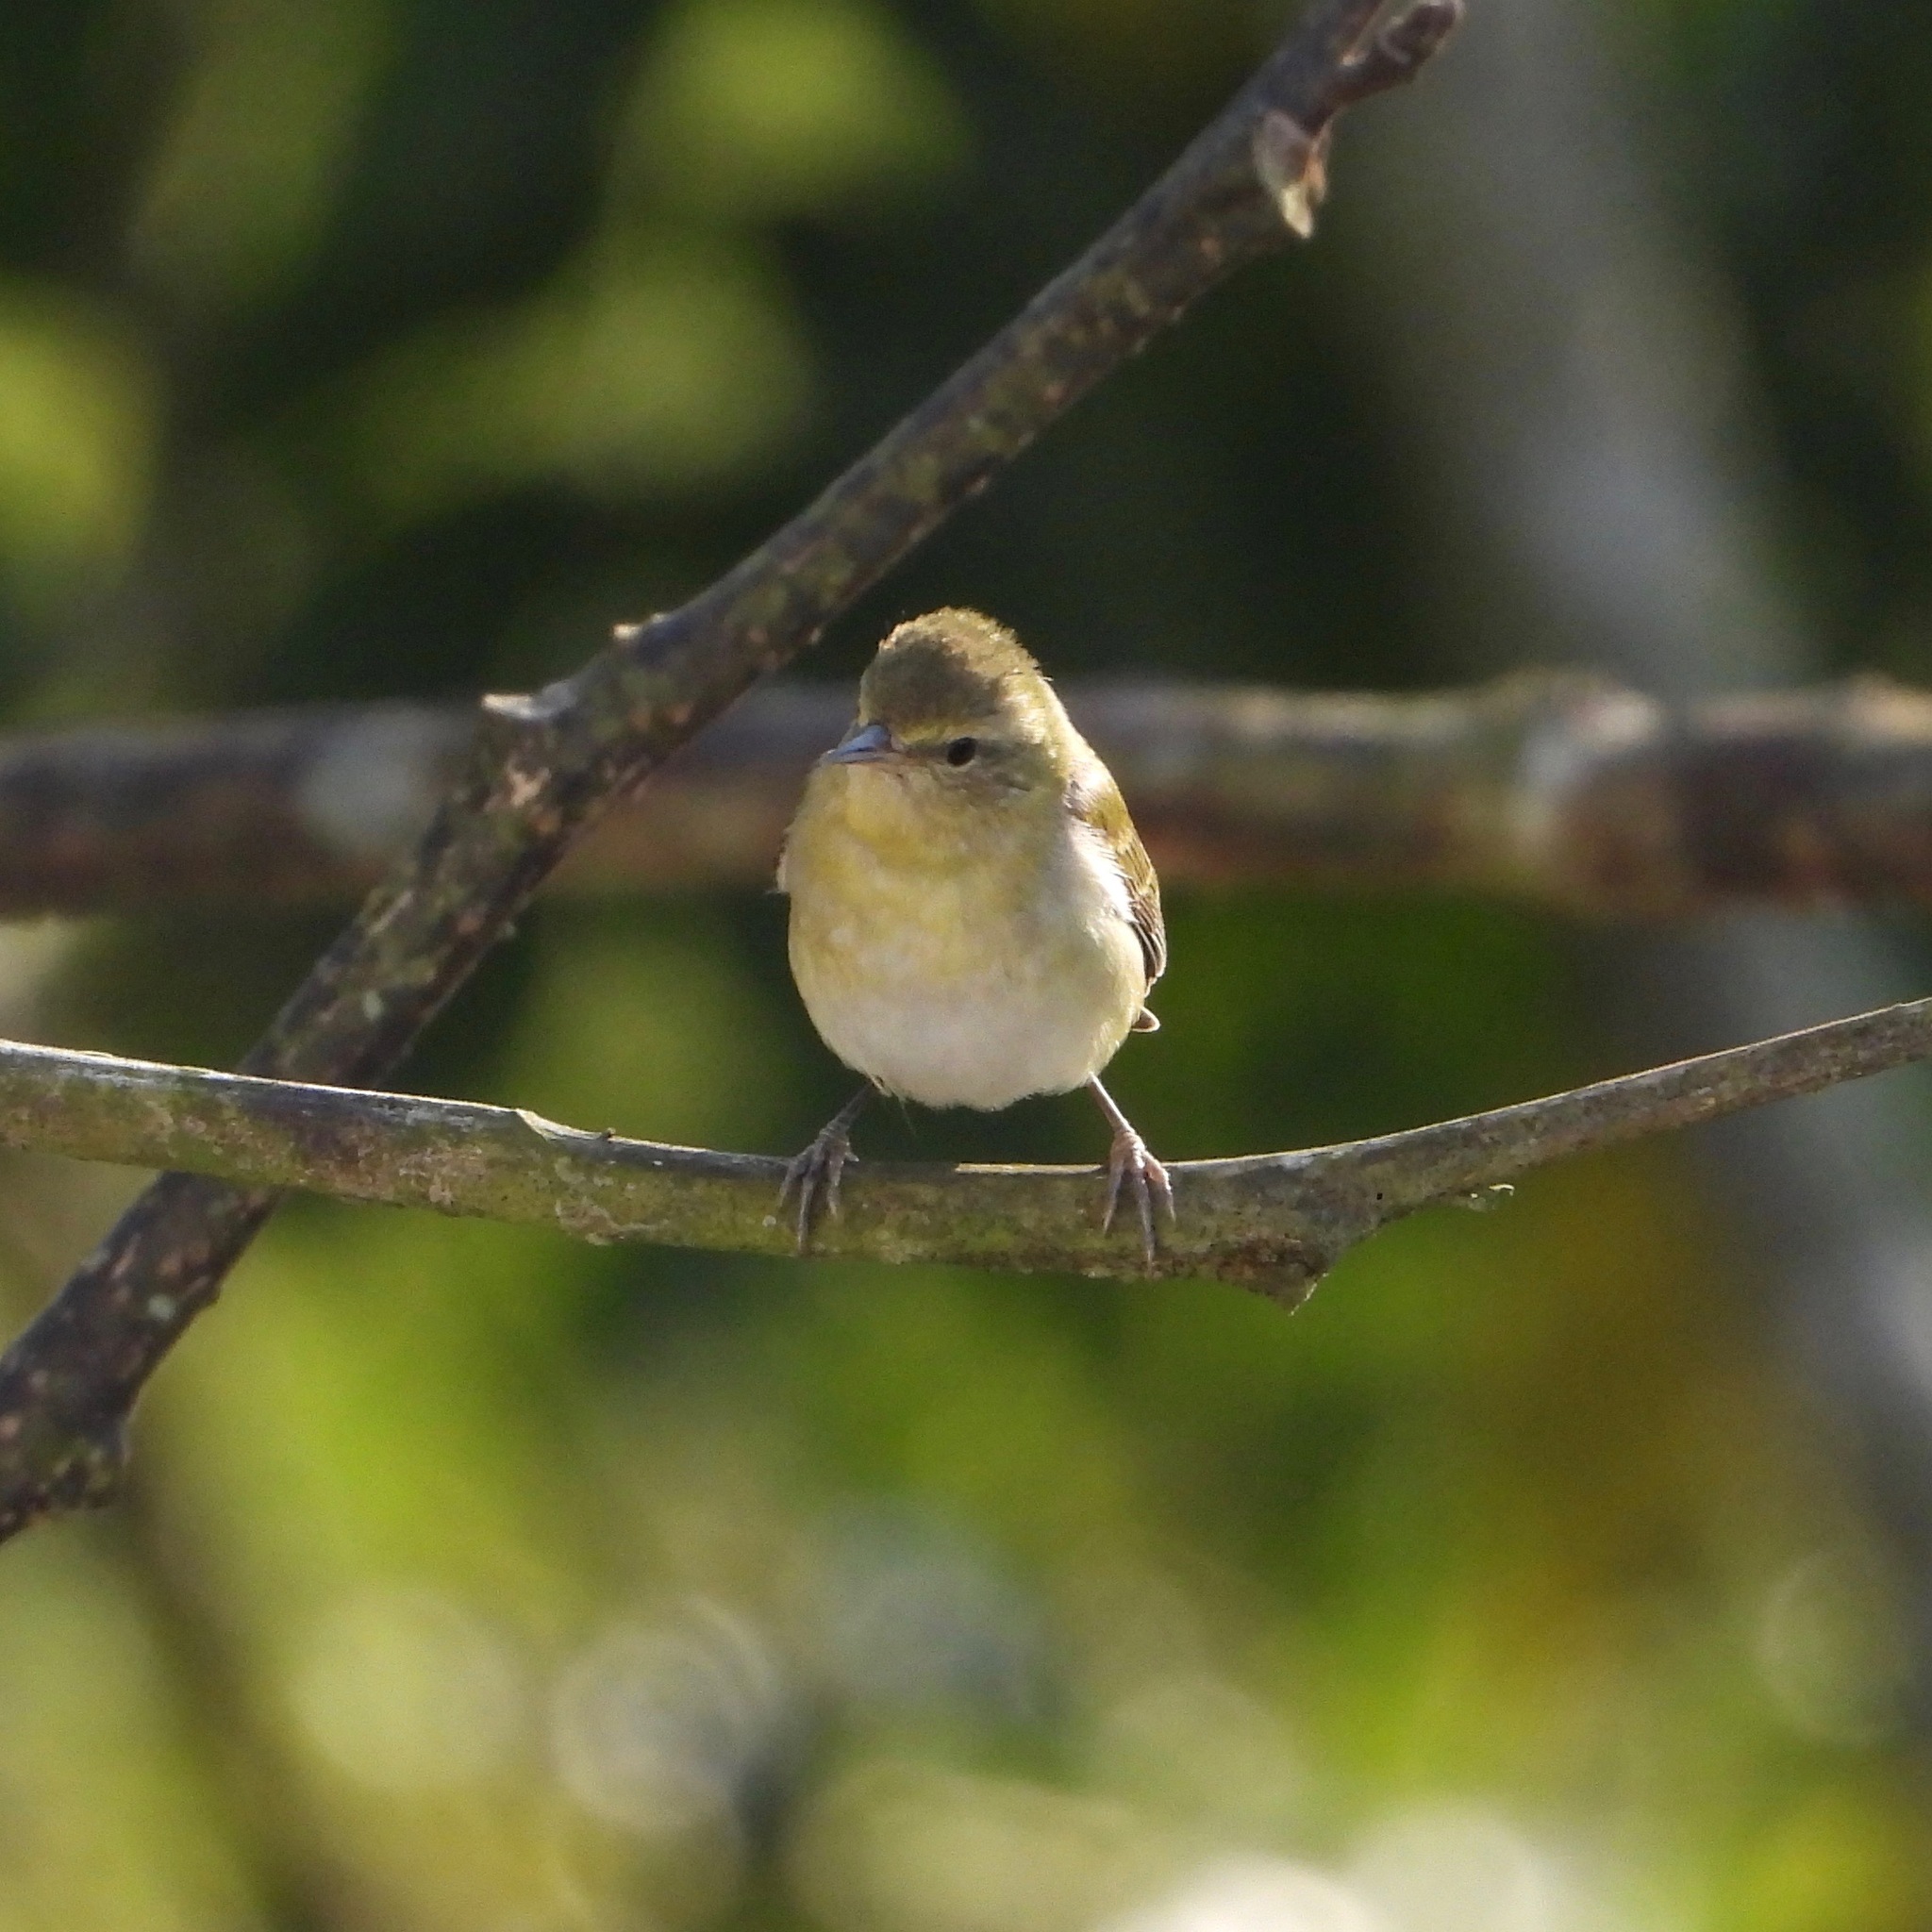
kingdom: Animalia
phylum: Chordata
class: Aves
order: Passeriformes
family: Parulidae
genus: Leiothlypis
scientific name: Leiothlypis peregrina
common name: Tennessee warbler
